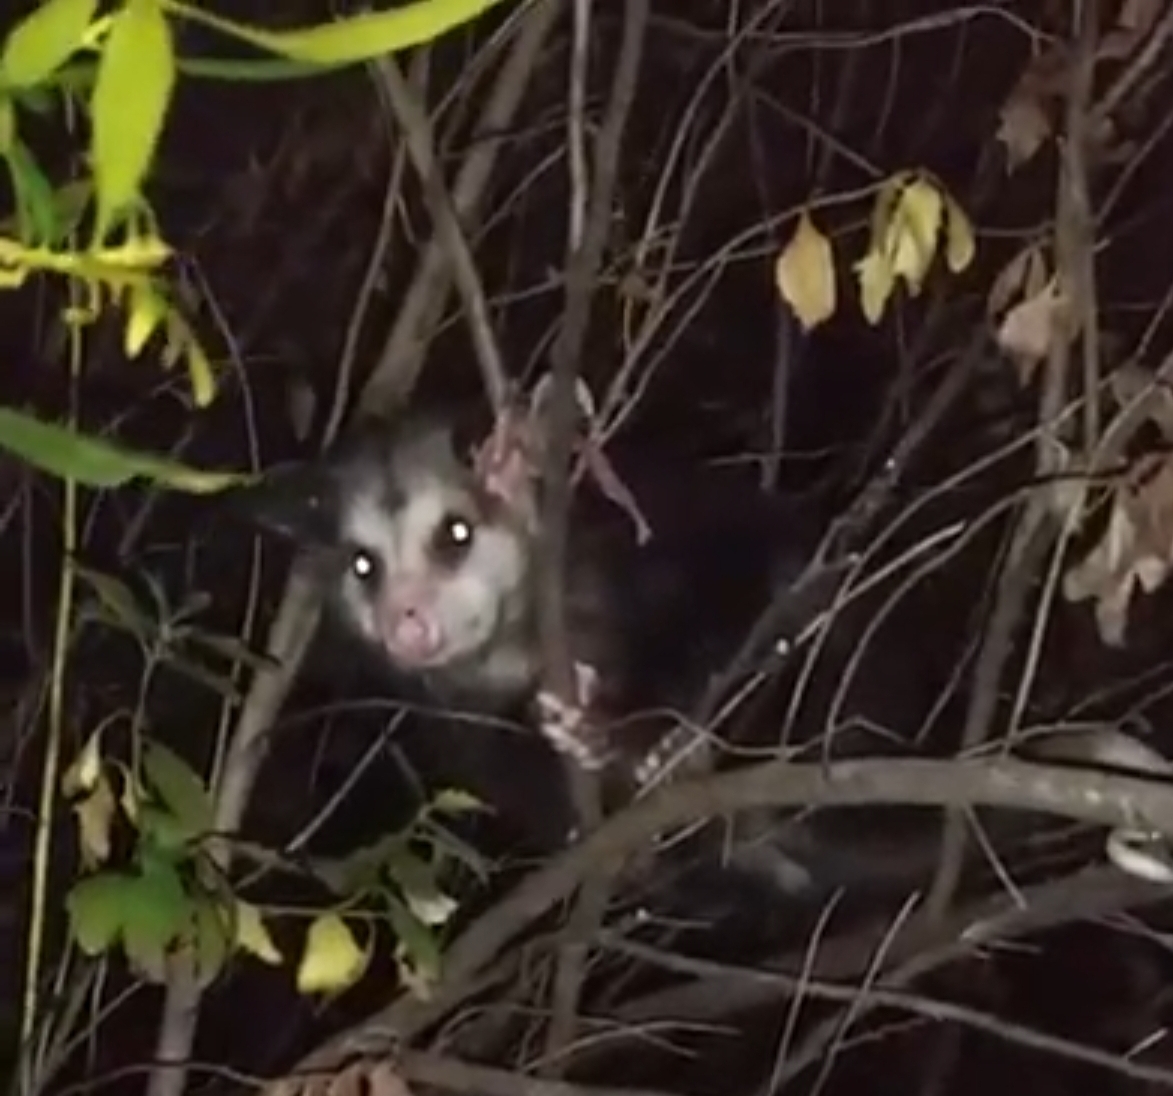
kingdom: Animalia
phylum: Chordata
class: Mammalia
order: Didelphimorphia
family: Didelphidae
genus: Didelphis
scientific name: Didelphis virginiana
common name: Virginia opossum
